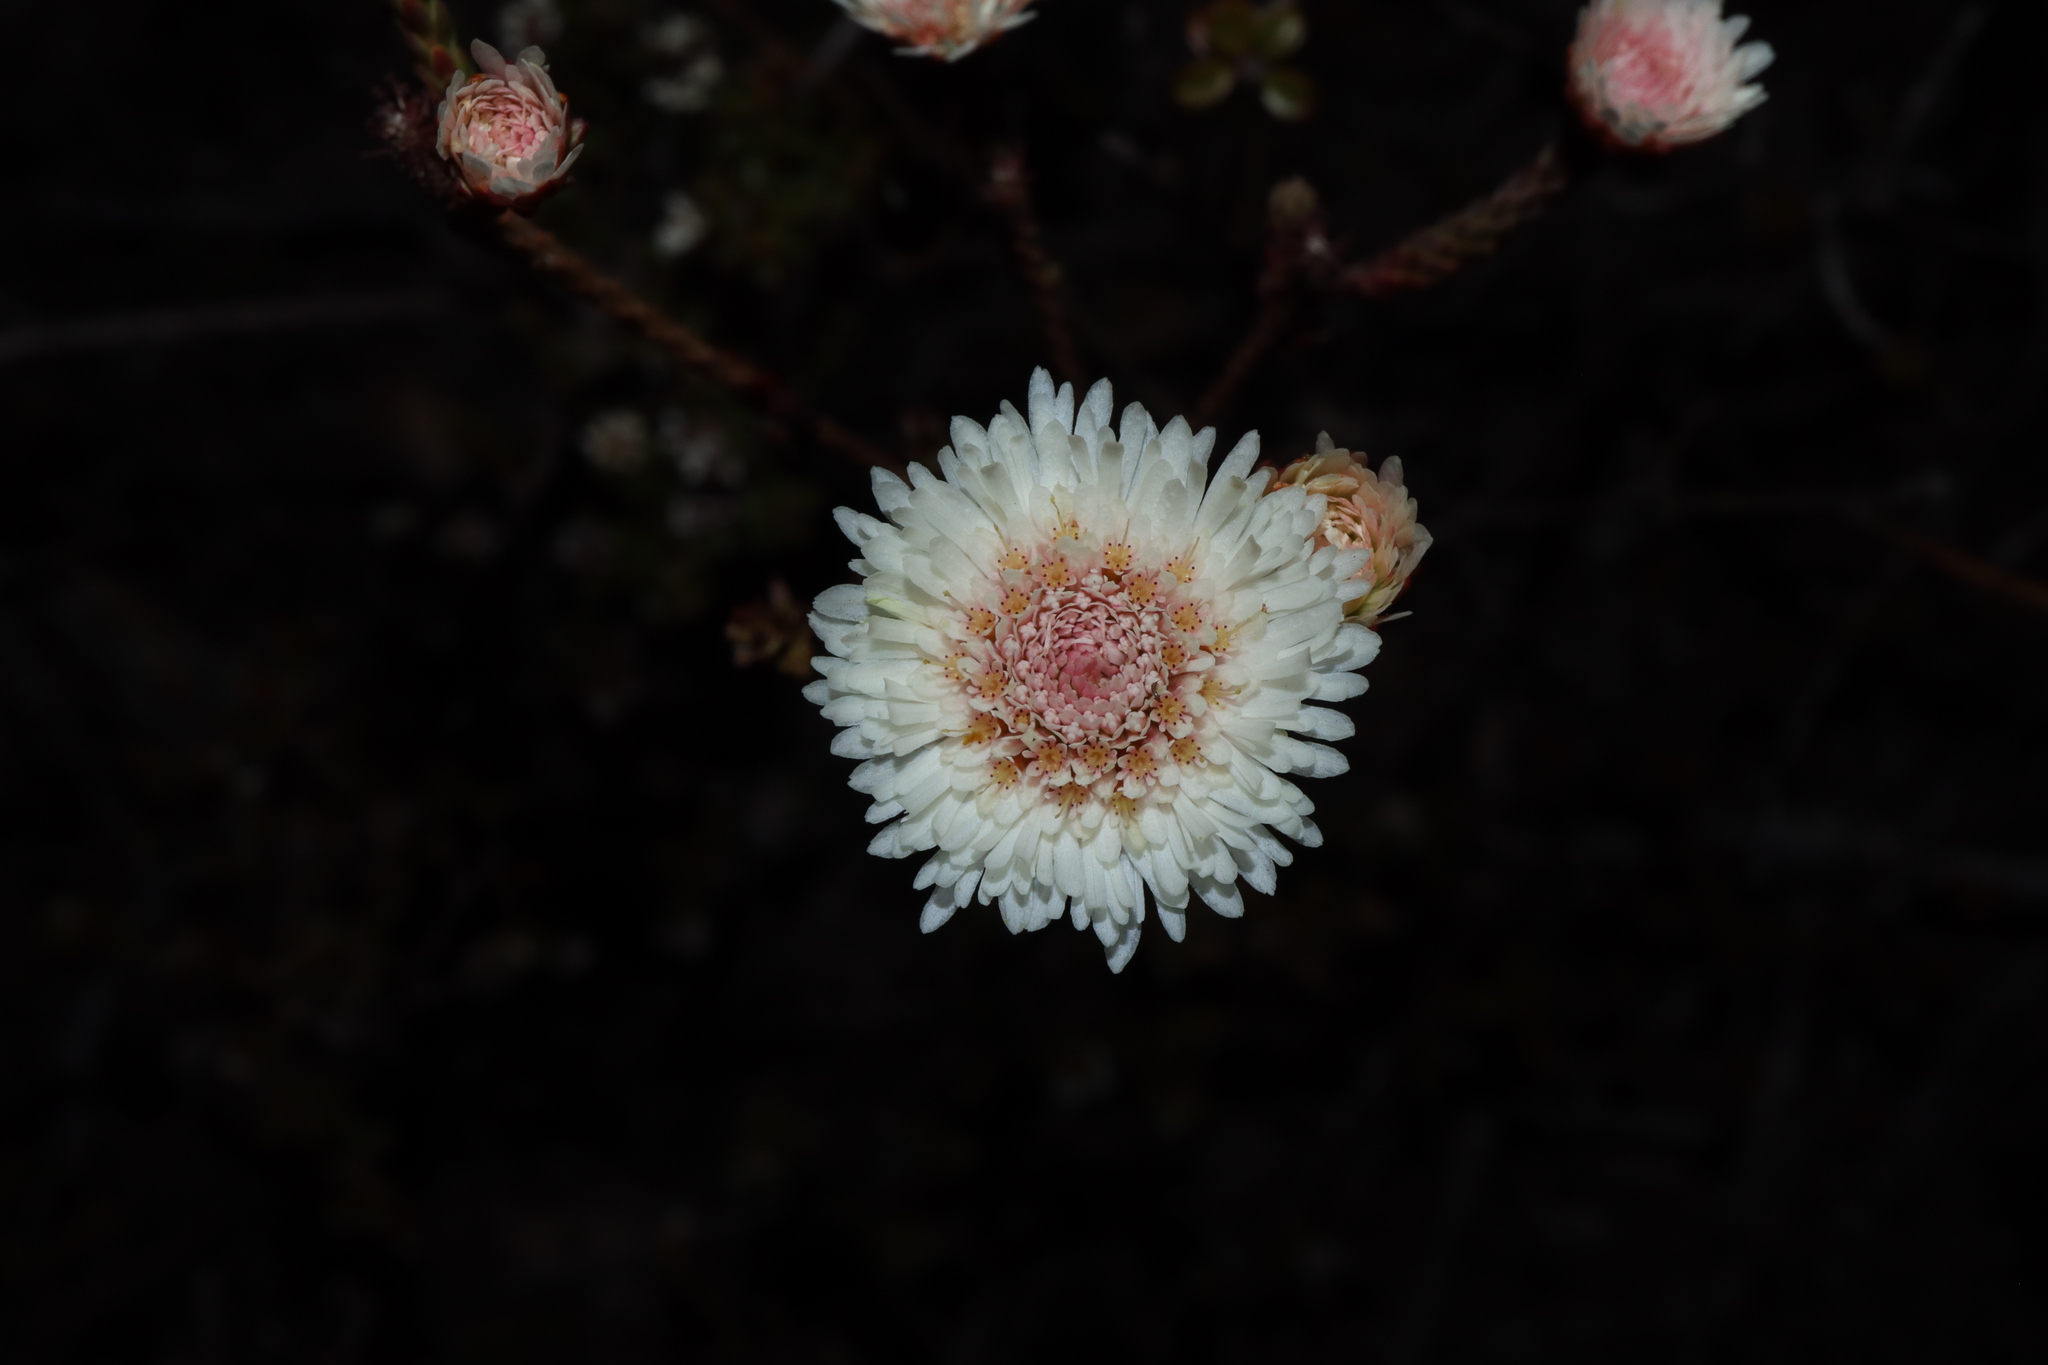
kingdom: Plantae
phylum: Tracheophyta
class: Magnoliopsida
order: Myrtales
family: Myrtaceae
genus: Actinodium
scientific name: Actinodium cunninghamii
